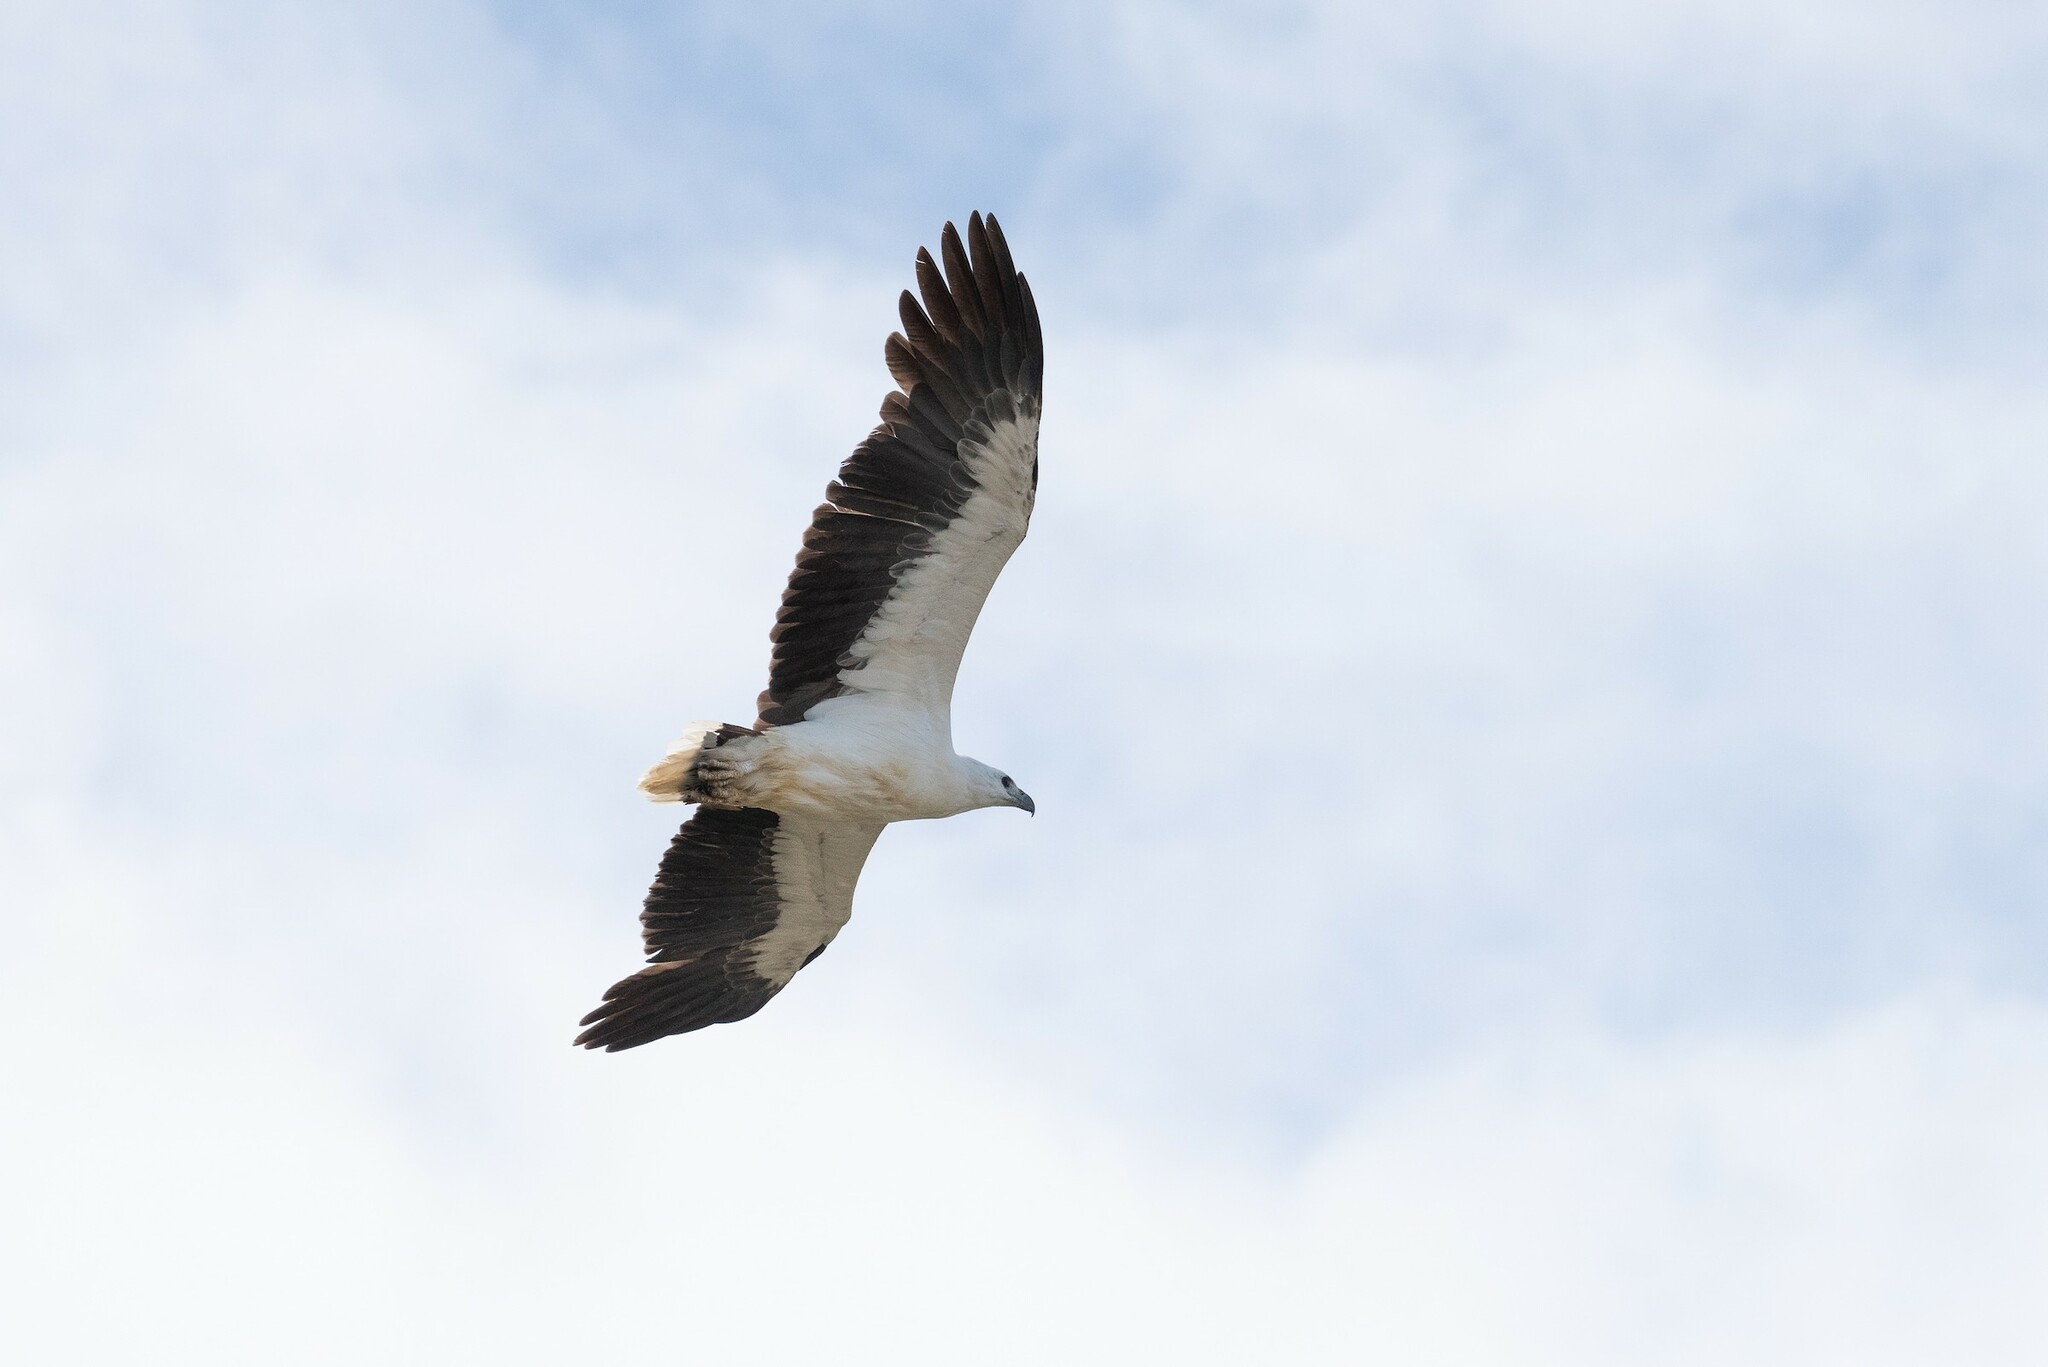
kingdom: Animalia
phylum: Chordata
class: Aves
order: Accipitriformes
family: Accipitridae
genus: Haliaeetus
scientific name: Haliaeetus leucogaster
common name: White-bellied sea eagle
